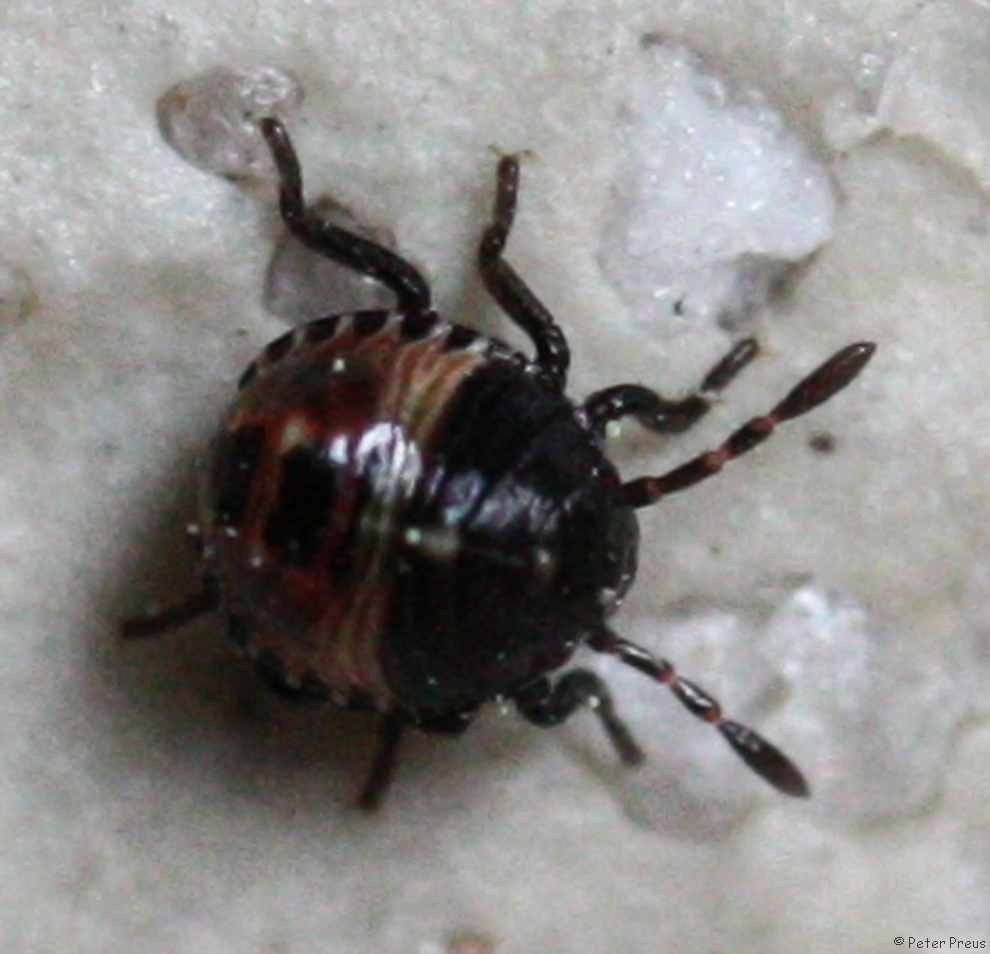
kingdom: Animalia
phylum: Arthropoda
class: Insecta
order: Hemiptera
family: Pentatomidae
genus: Palomena
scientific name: Palomena prasina
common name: Green shieldbug
